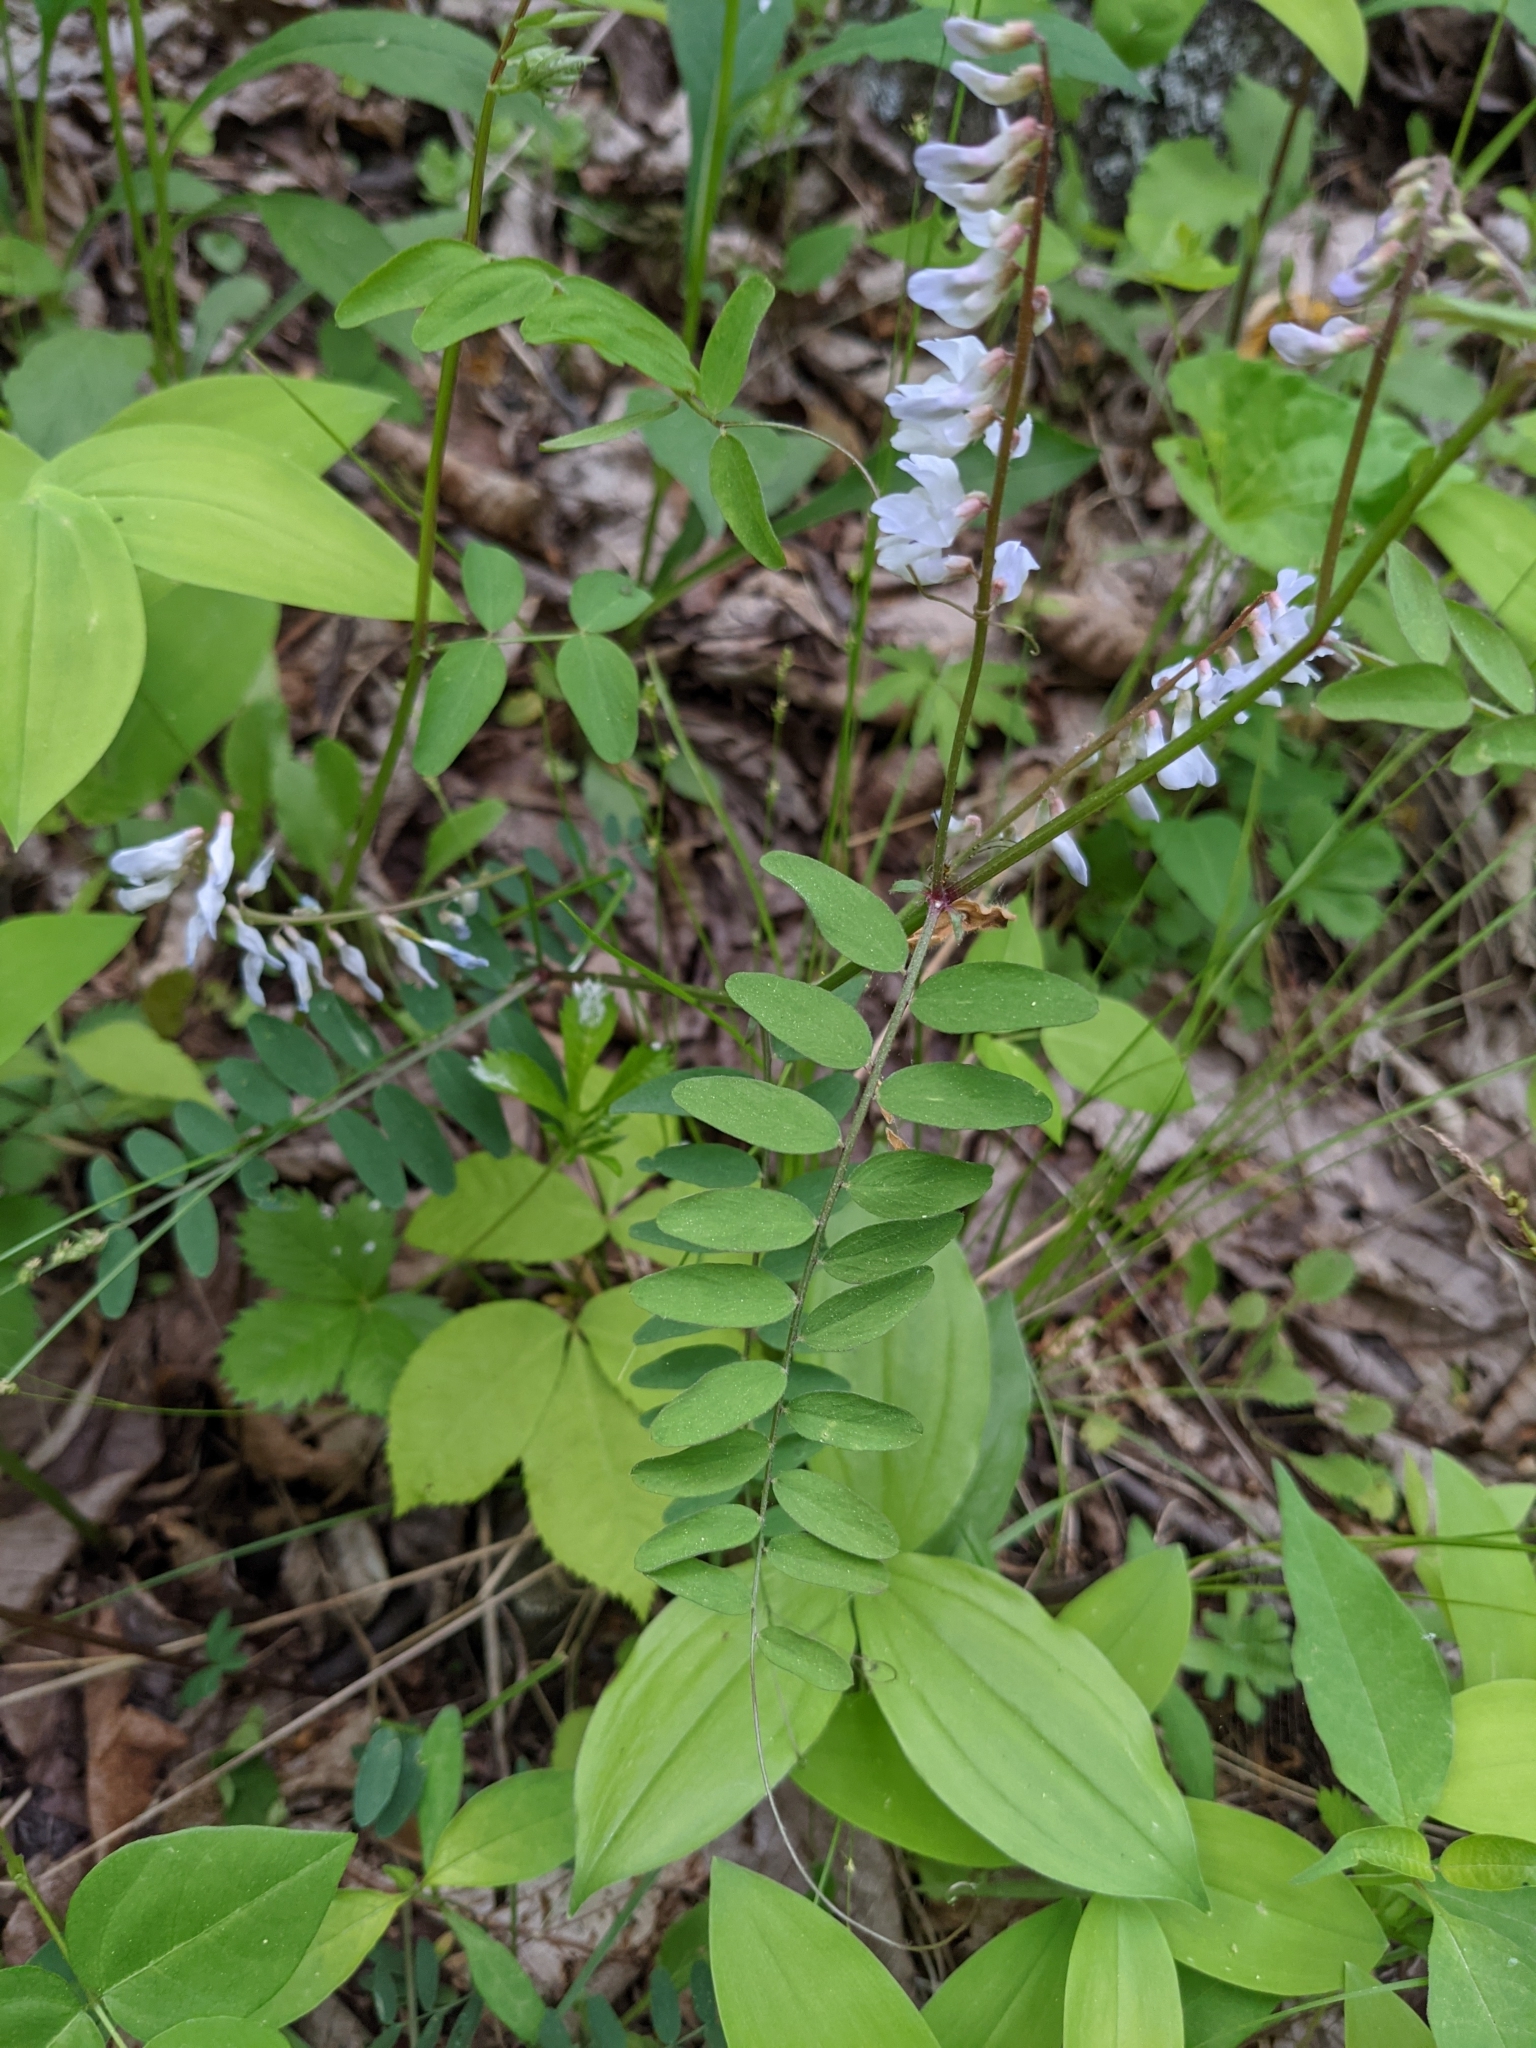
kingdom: Plantae
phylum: Tracheophyta
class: Magnoliopsida
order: Fabales
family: Fabaceae
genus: Vicia
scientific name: Vicia caroliniana
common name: Carolina vetch
